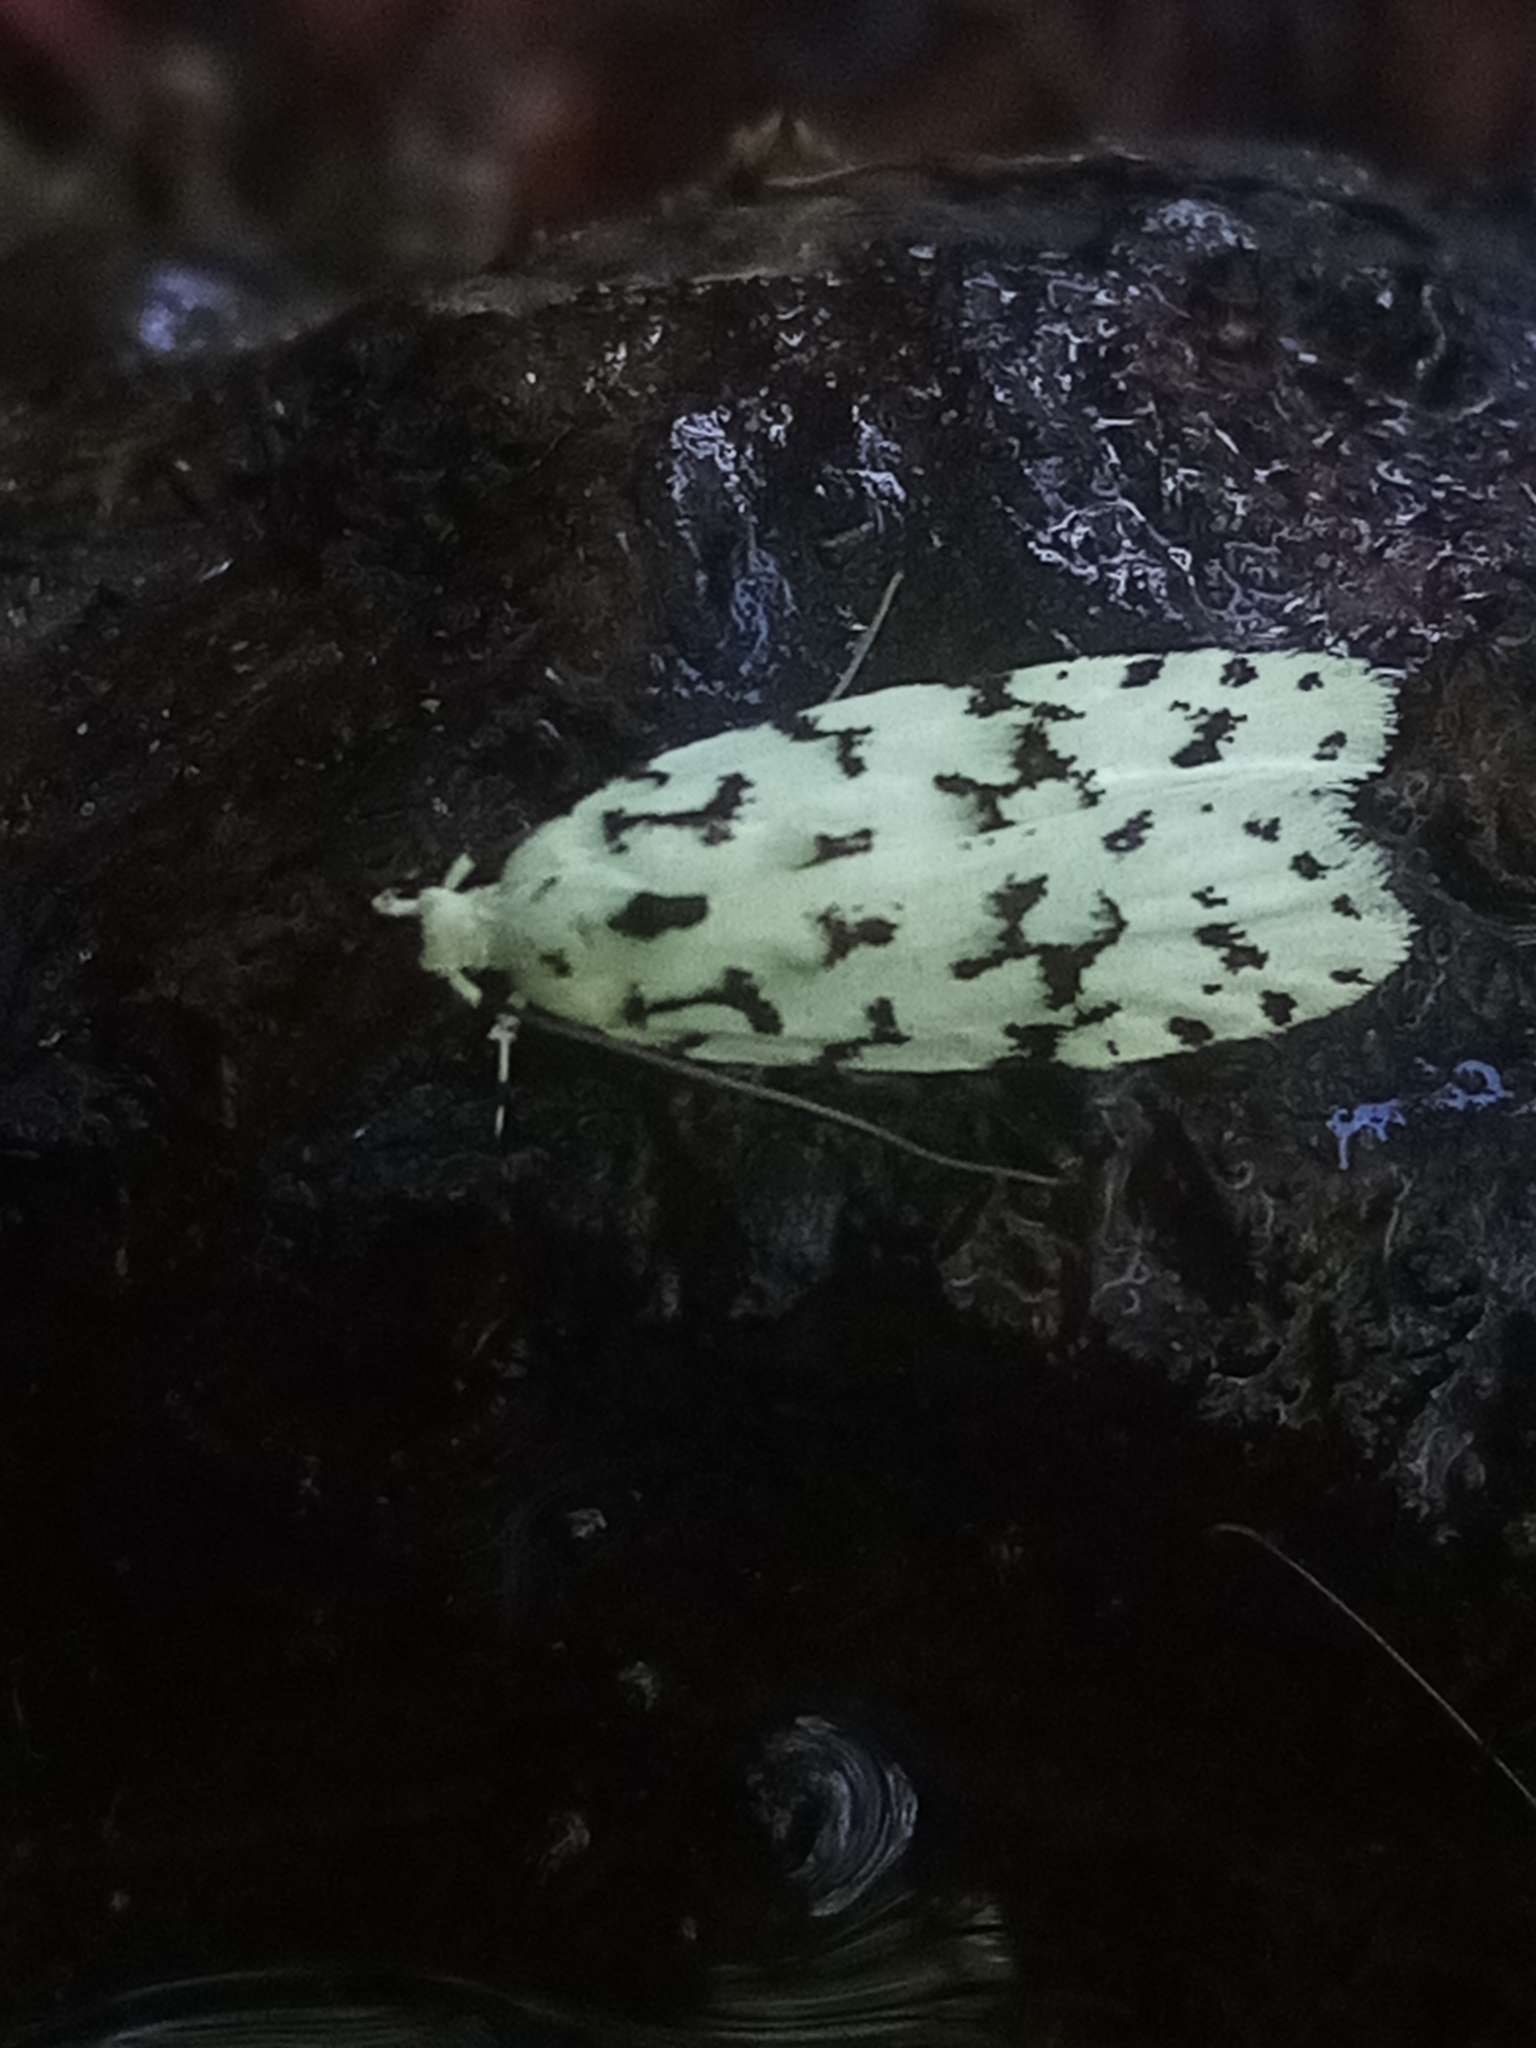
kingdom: Animalia
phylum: Arthropoda
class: Insecta
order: Lepidoptera
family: Oecophoridae
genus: Izatha
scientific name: Izatha huttoni
